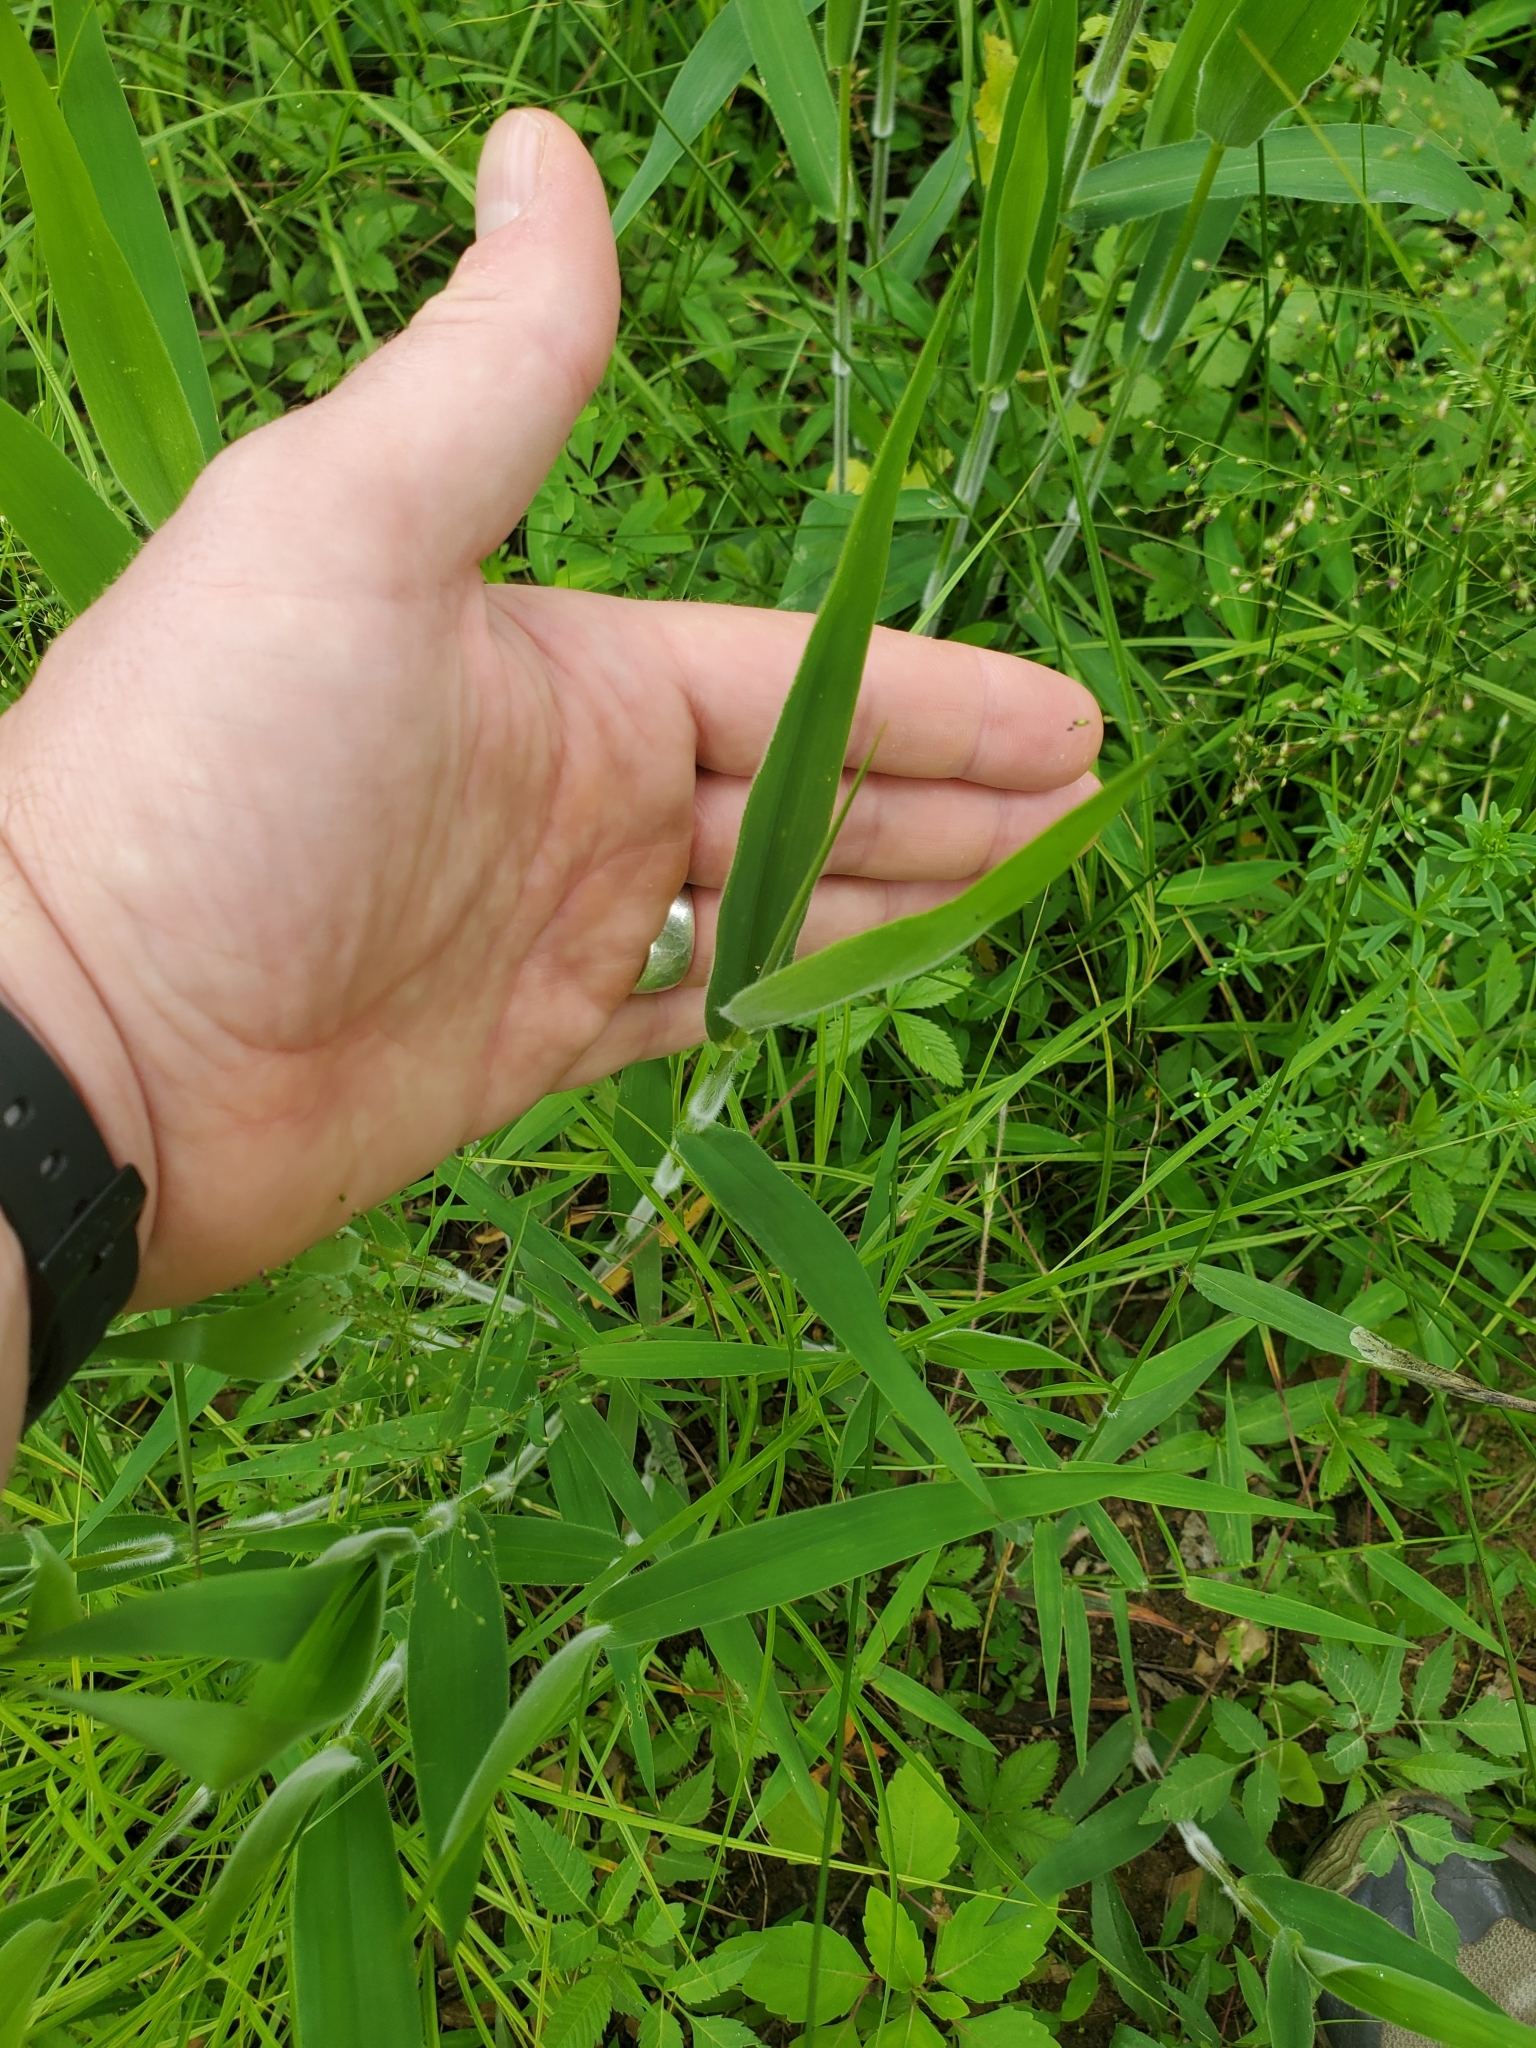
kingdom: Plantae
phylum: Tracheophyta
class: Liliopsida
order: Poales
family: Poaceae
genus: Dichanthelium
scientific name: Dichanthelium scoparium
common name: Velvety panic grass
